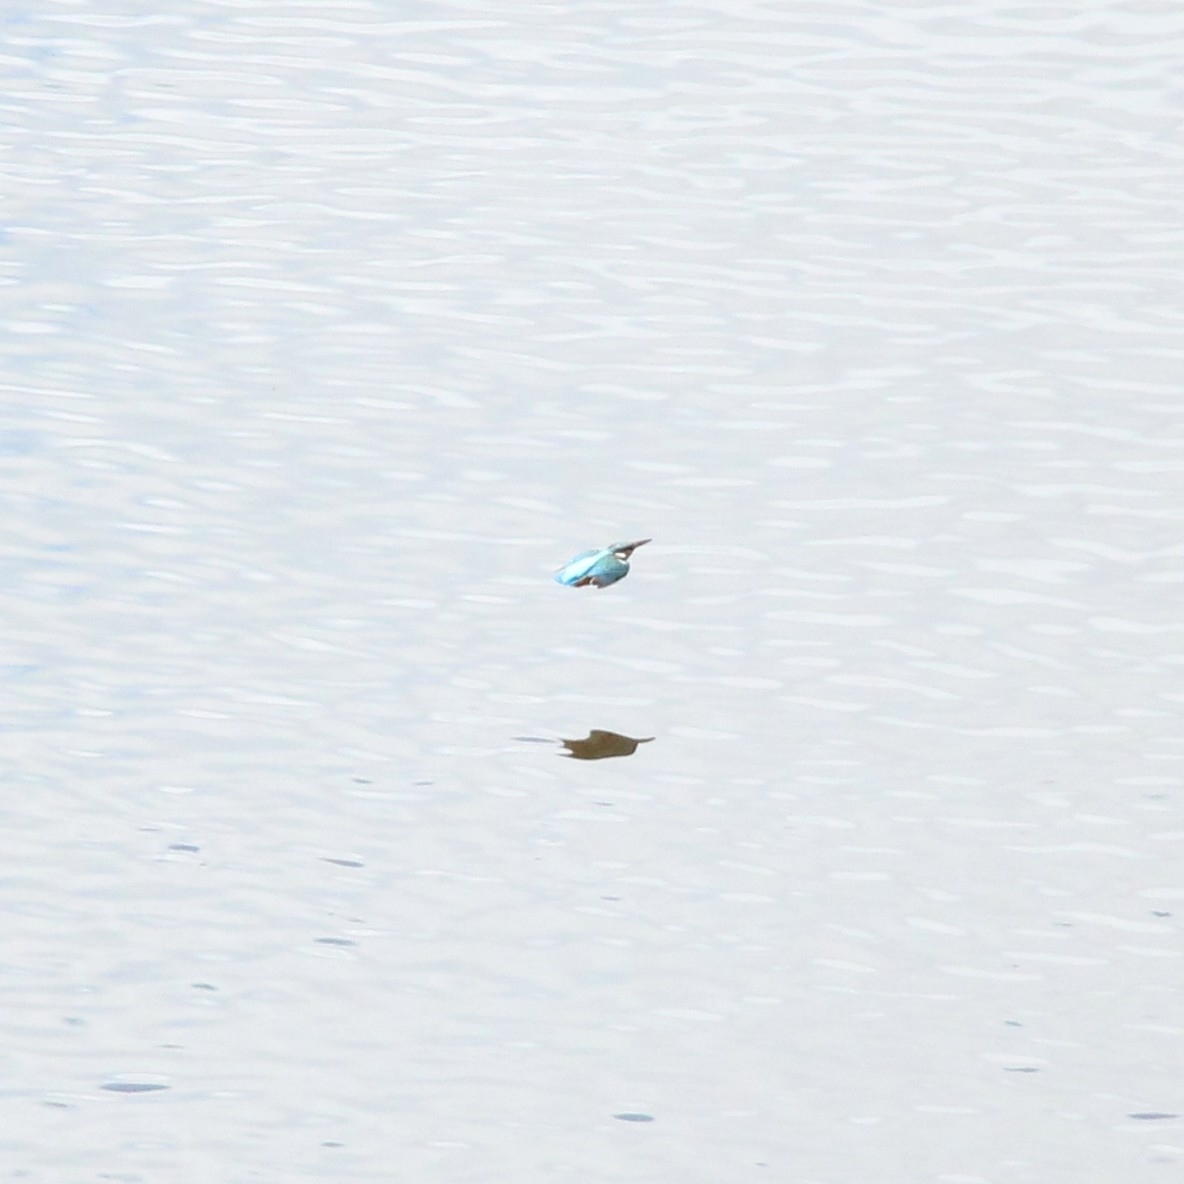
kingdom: Animalia
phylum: Chordata
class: Aves
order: Coraciiformes
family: Alcedinidae
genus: Alcedo
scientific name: Alcedo atthis
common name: Common kingfisher
